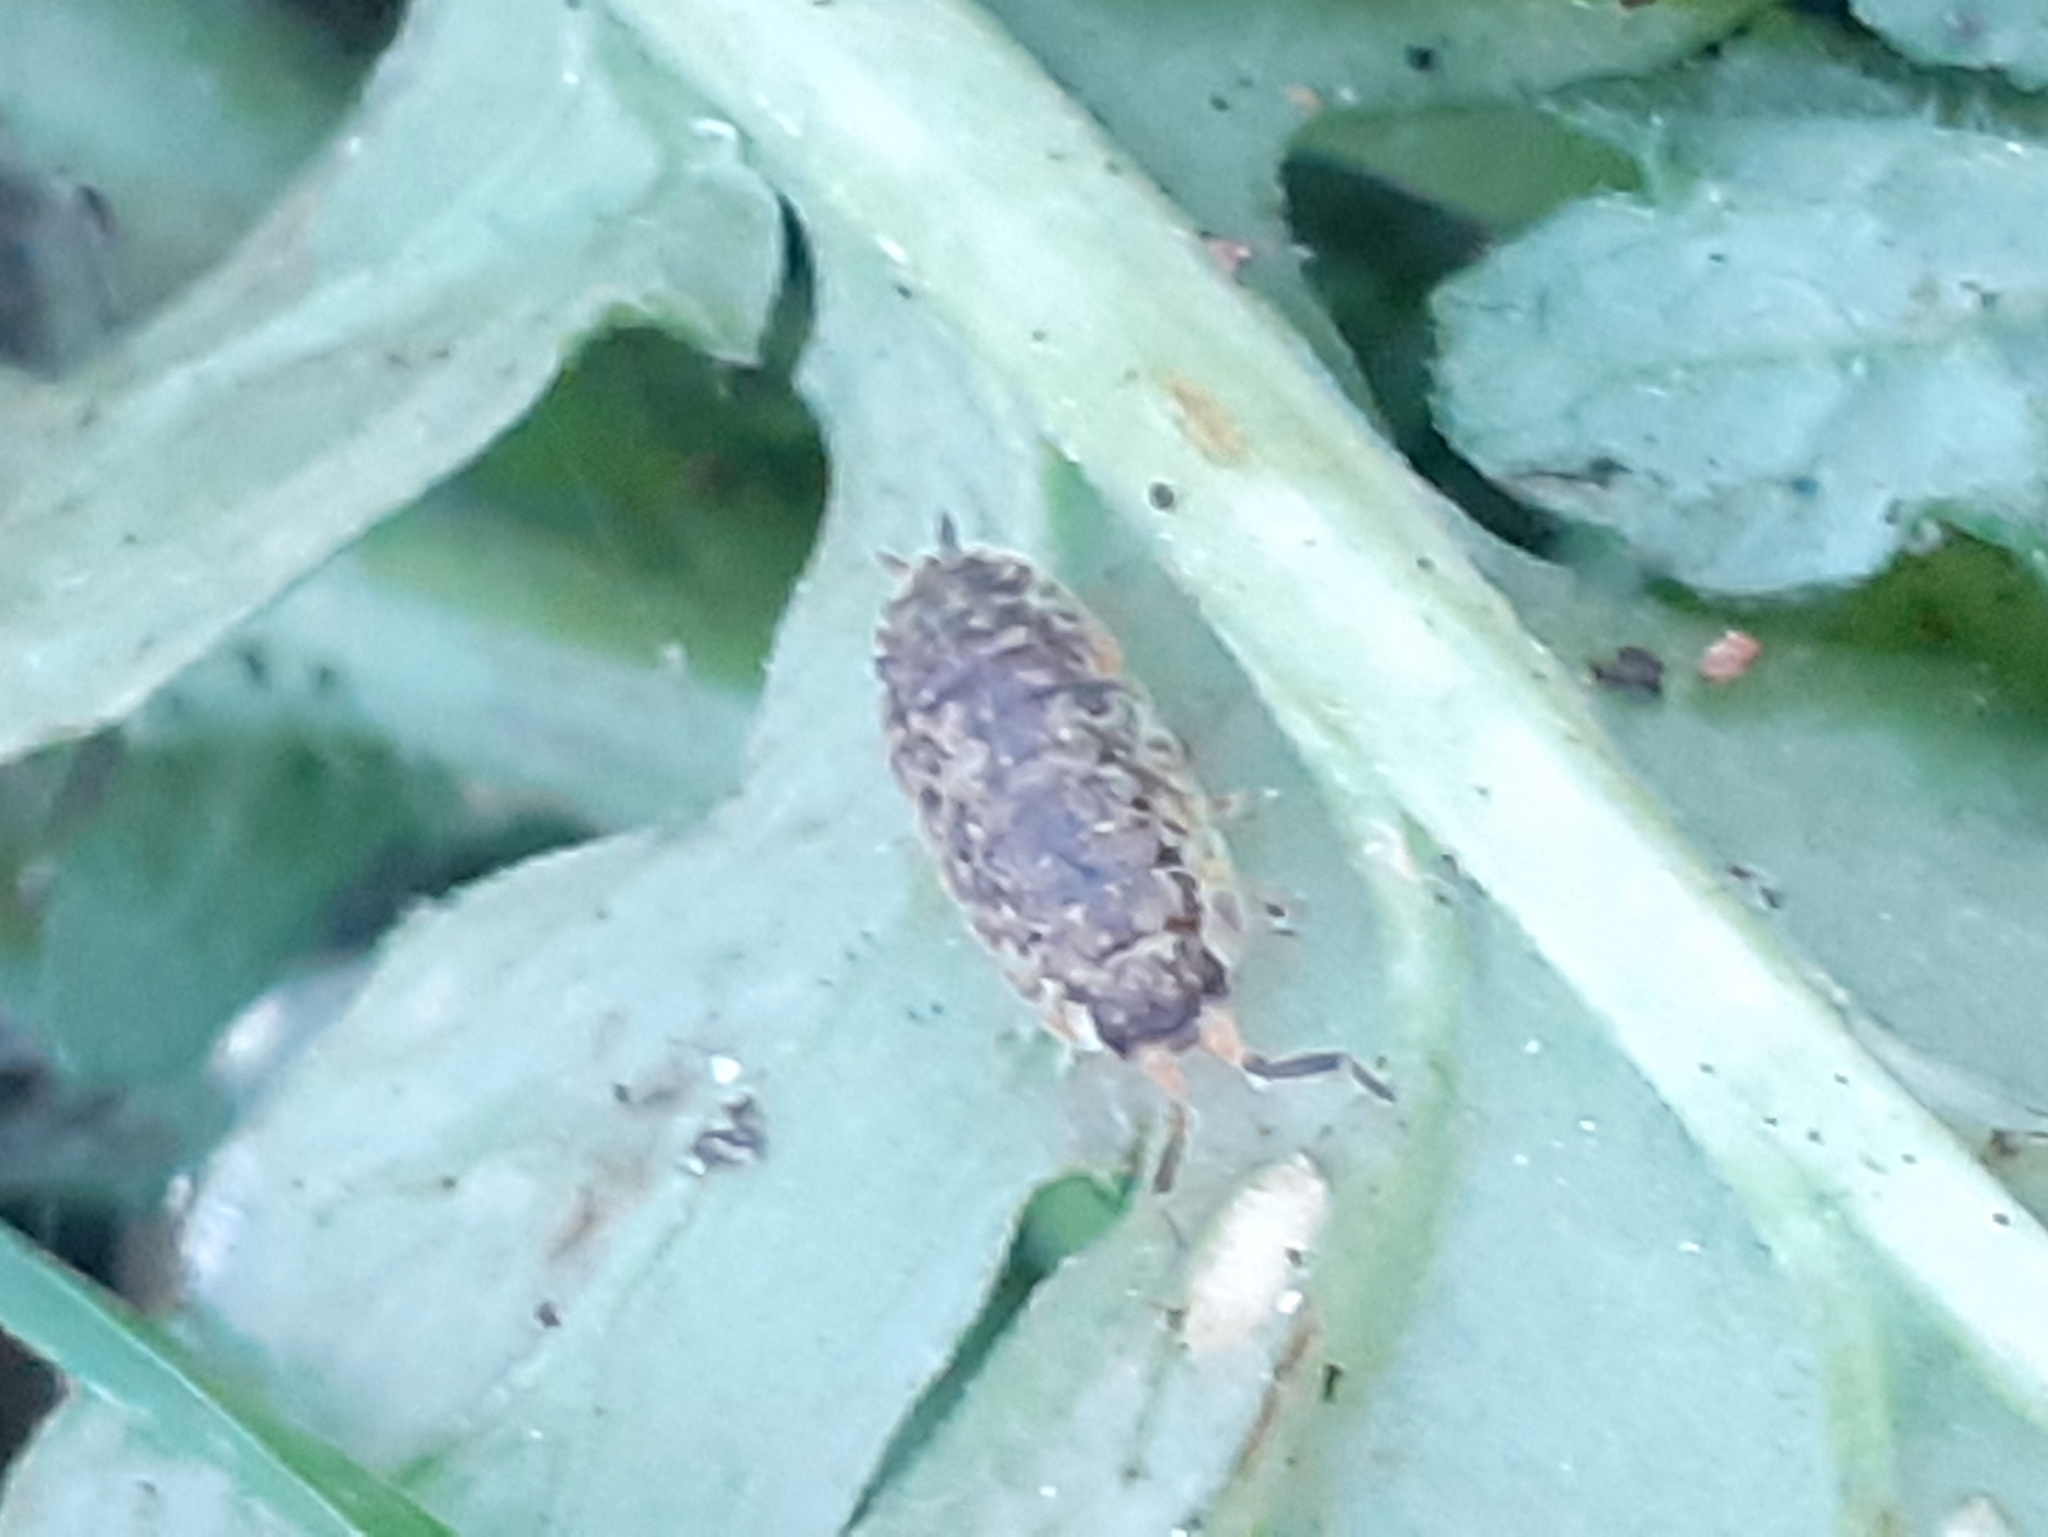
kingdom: Animalia
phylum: Arthropoda
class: Malacostraca
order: Isopoda
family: Porcellionidae
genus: Porcellio
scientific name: Porcellio scaber
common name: Common rough woodlouse
